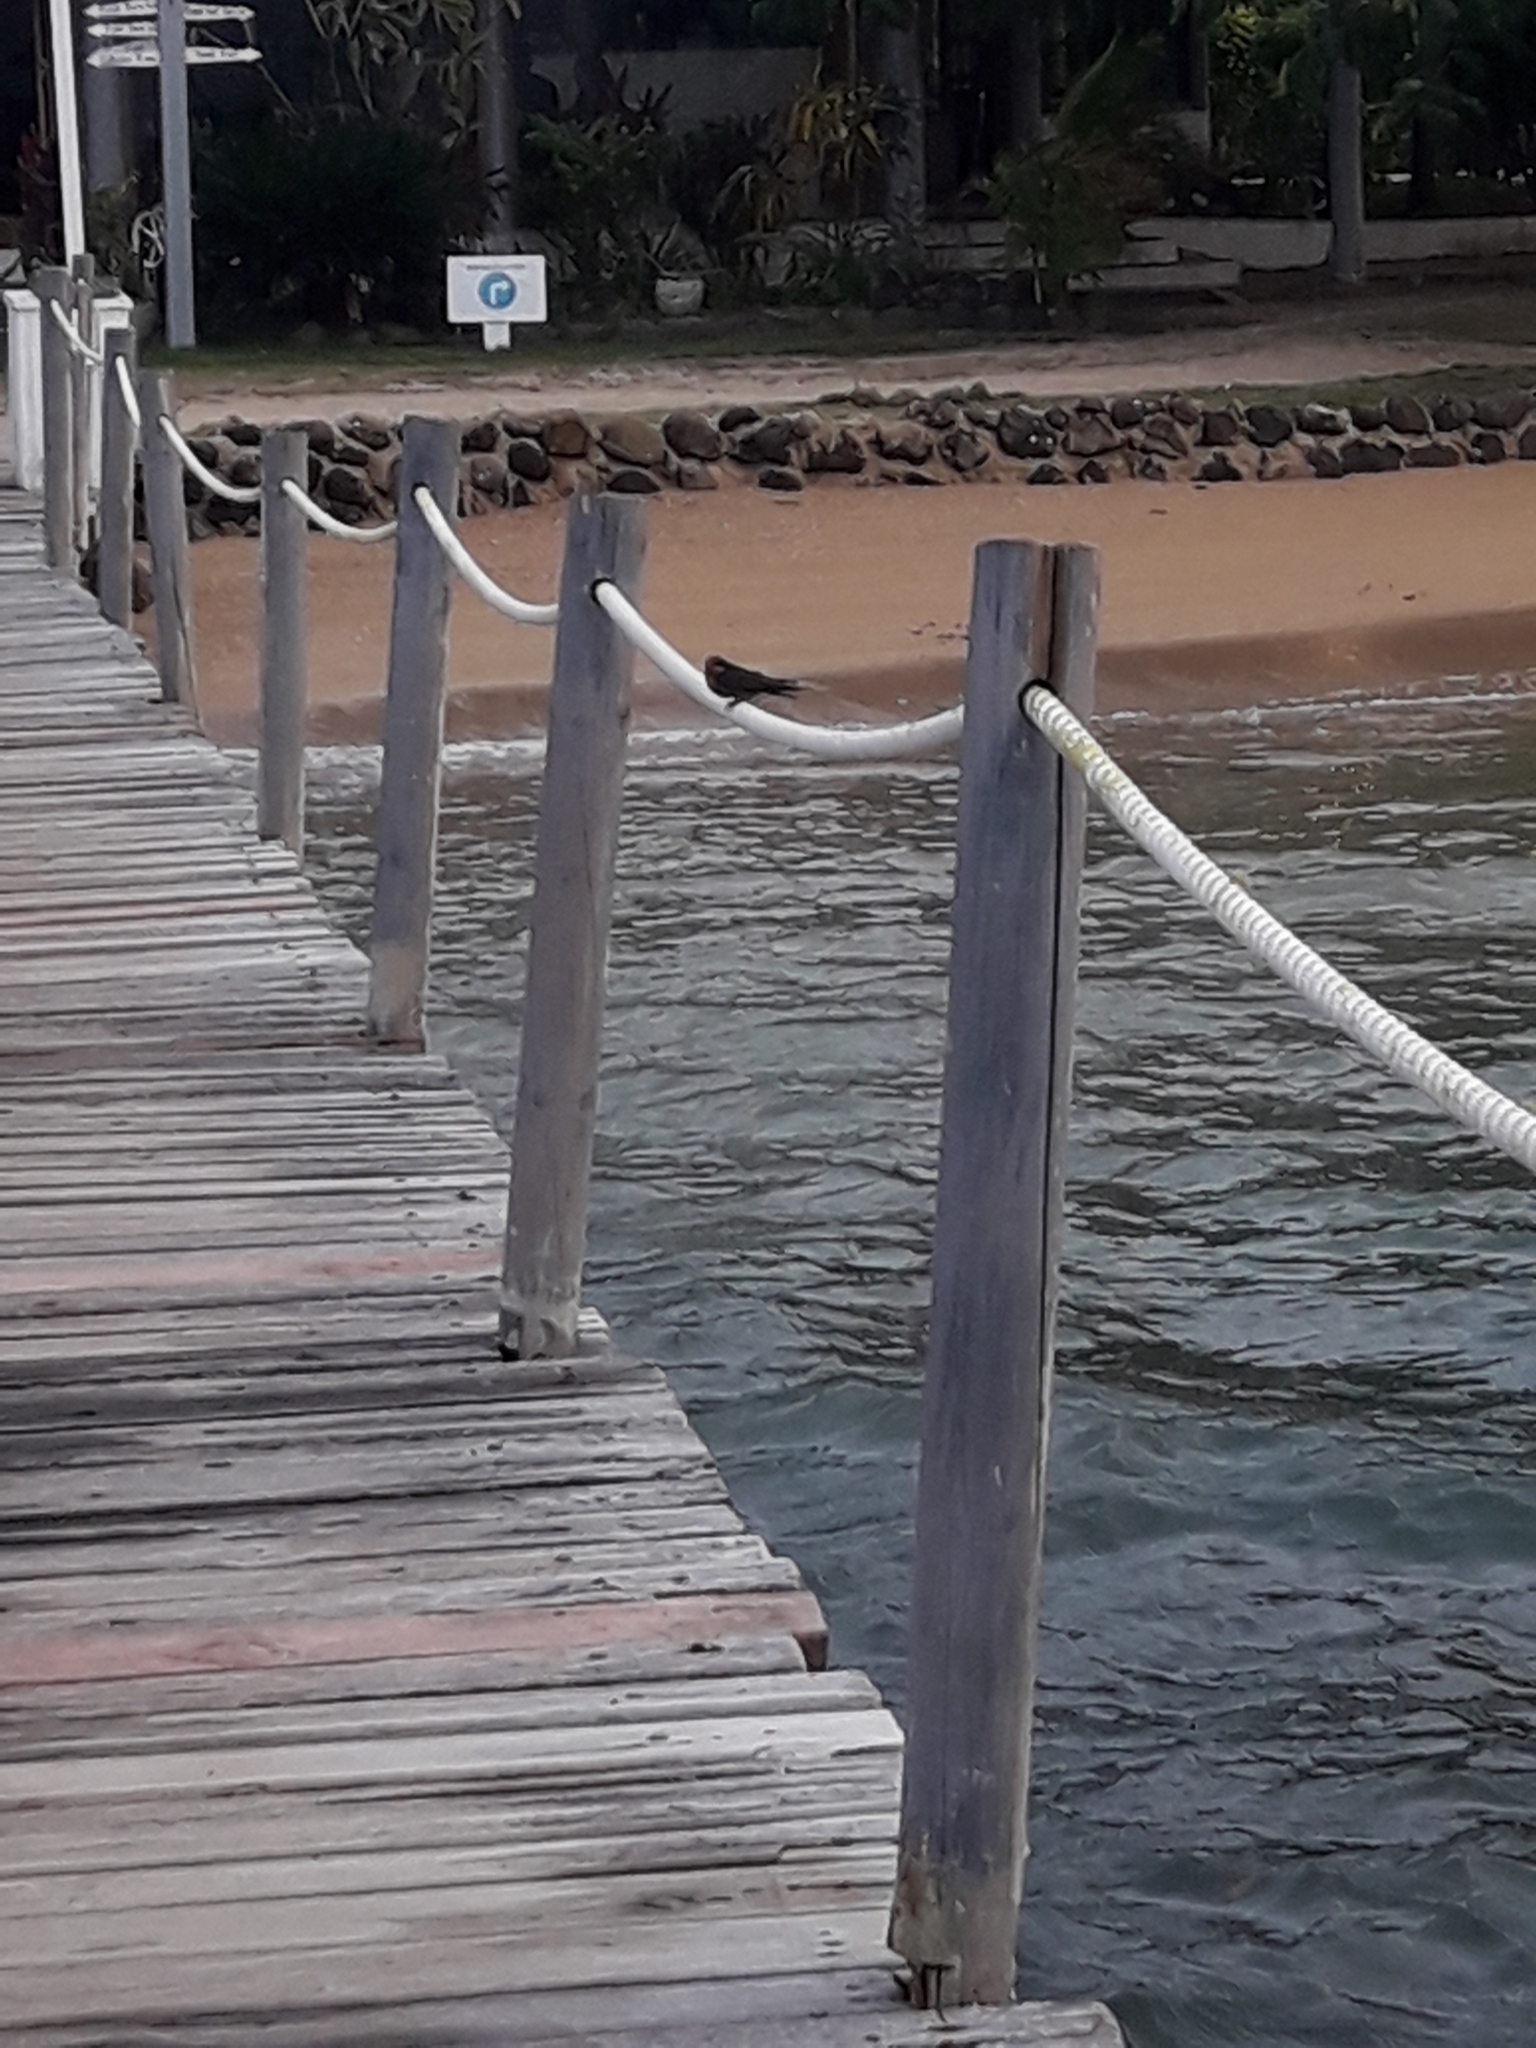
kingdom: Animalia
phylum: Chordata
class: Aves
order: Passeriformes
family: Hirundinidae
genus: Hirundo
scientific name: Hirundo tahitica
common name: Pacific swallow
